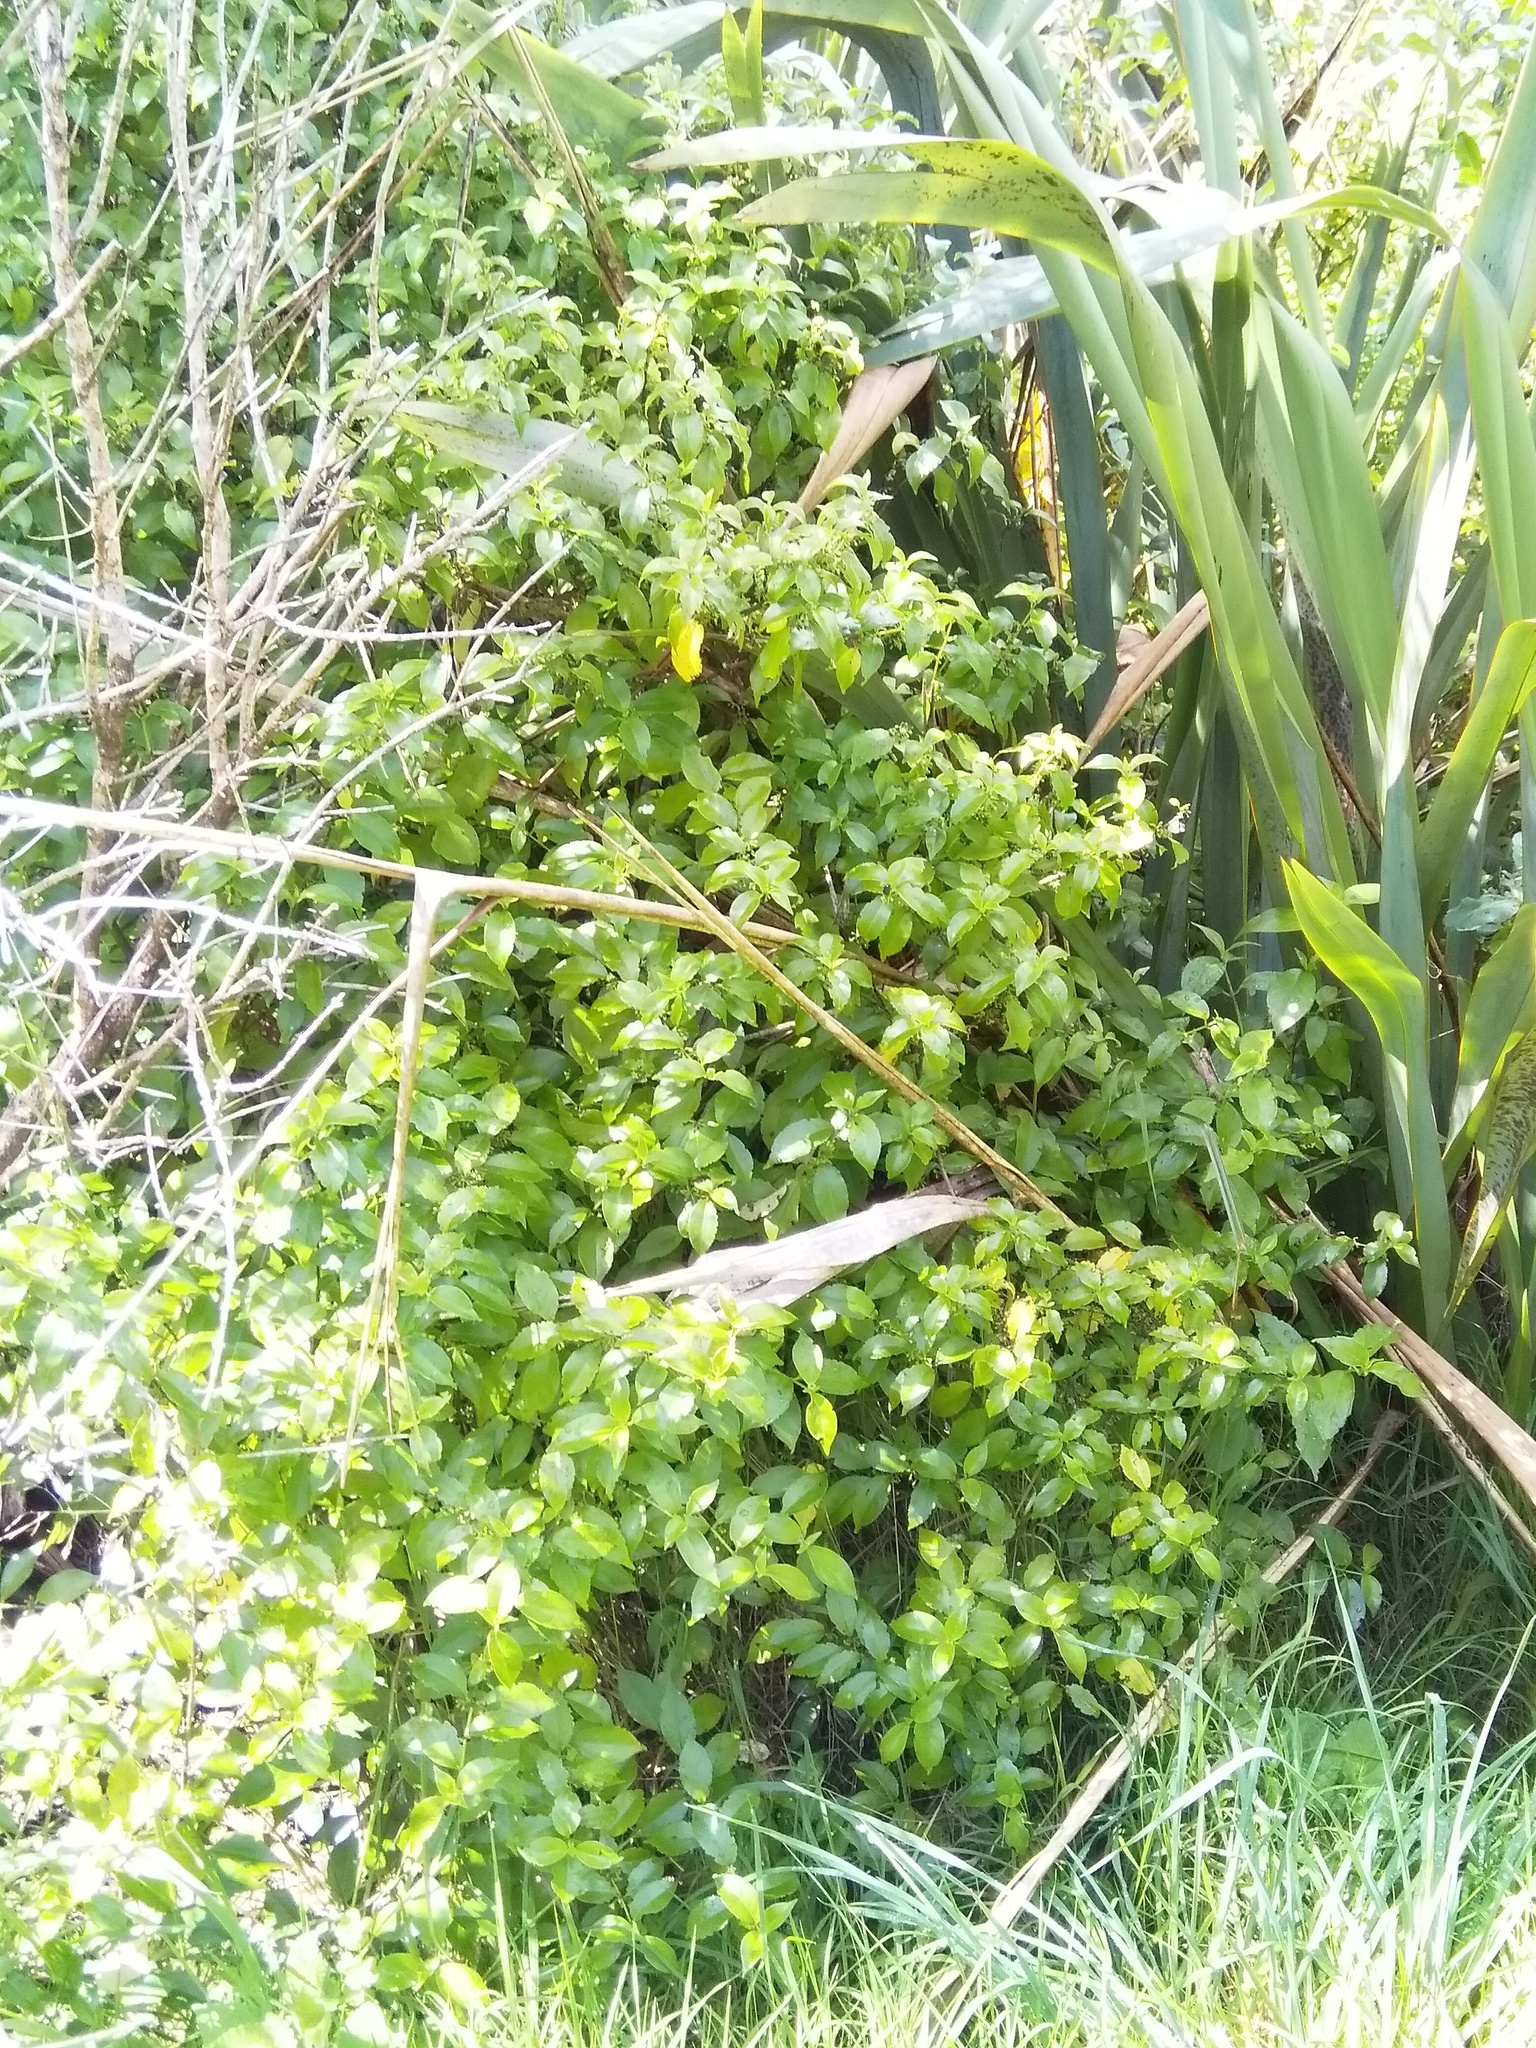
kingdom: Plantae
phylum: Tracheophyta
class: Magnoliopsida
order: Gentianales
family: Loganiaceae
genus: Geniostoma
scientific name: Geniostoma ligustrifolium
